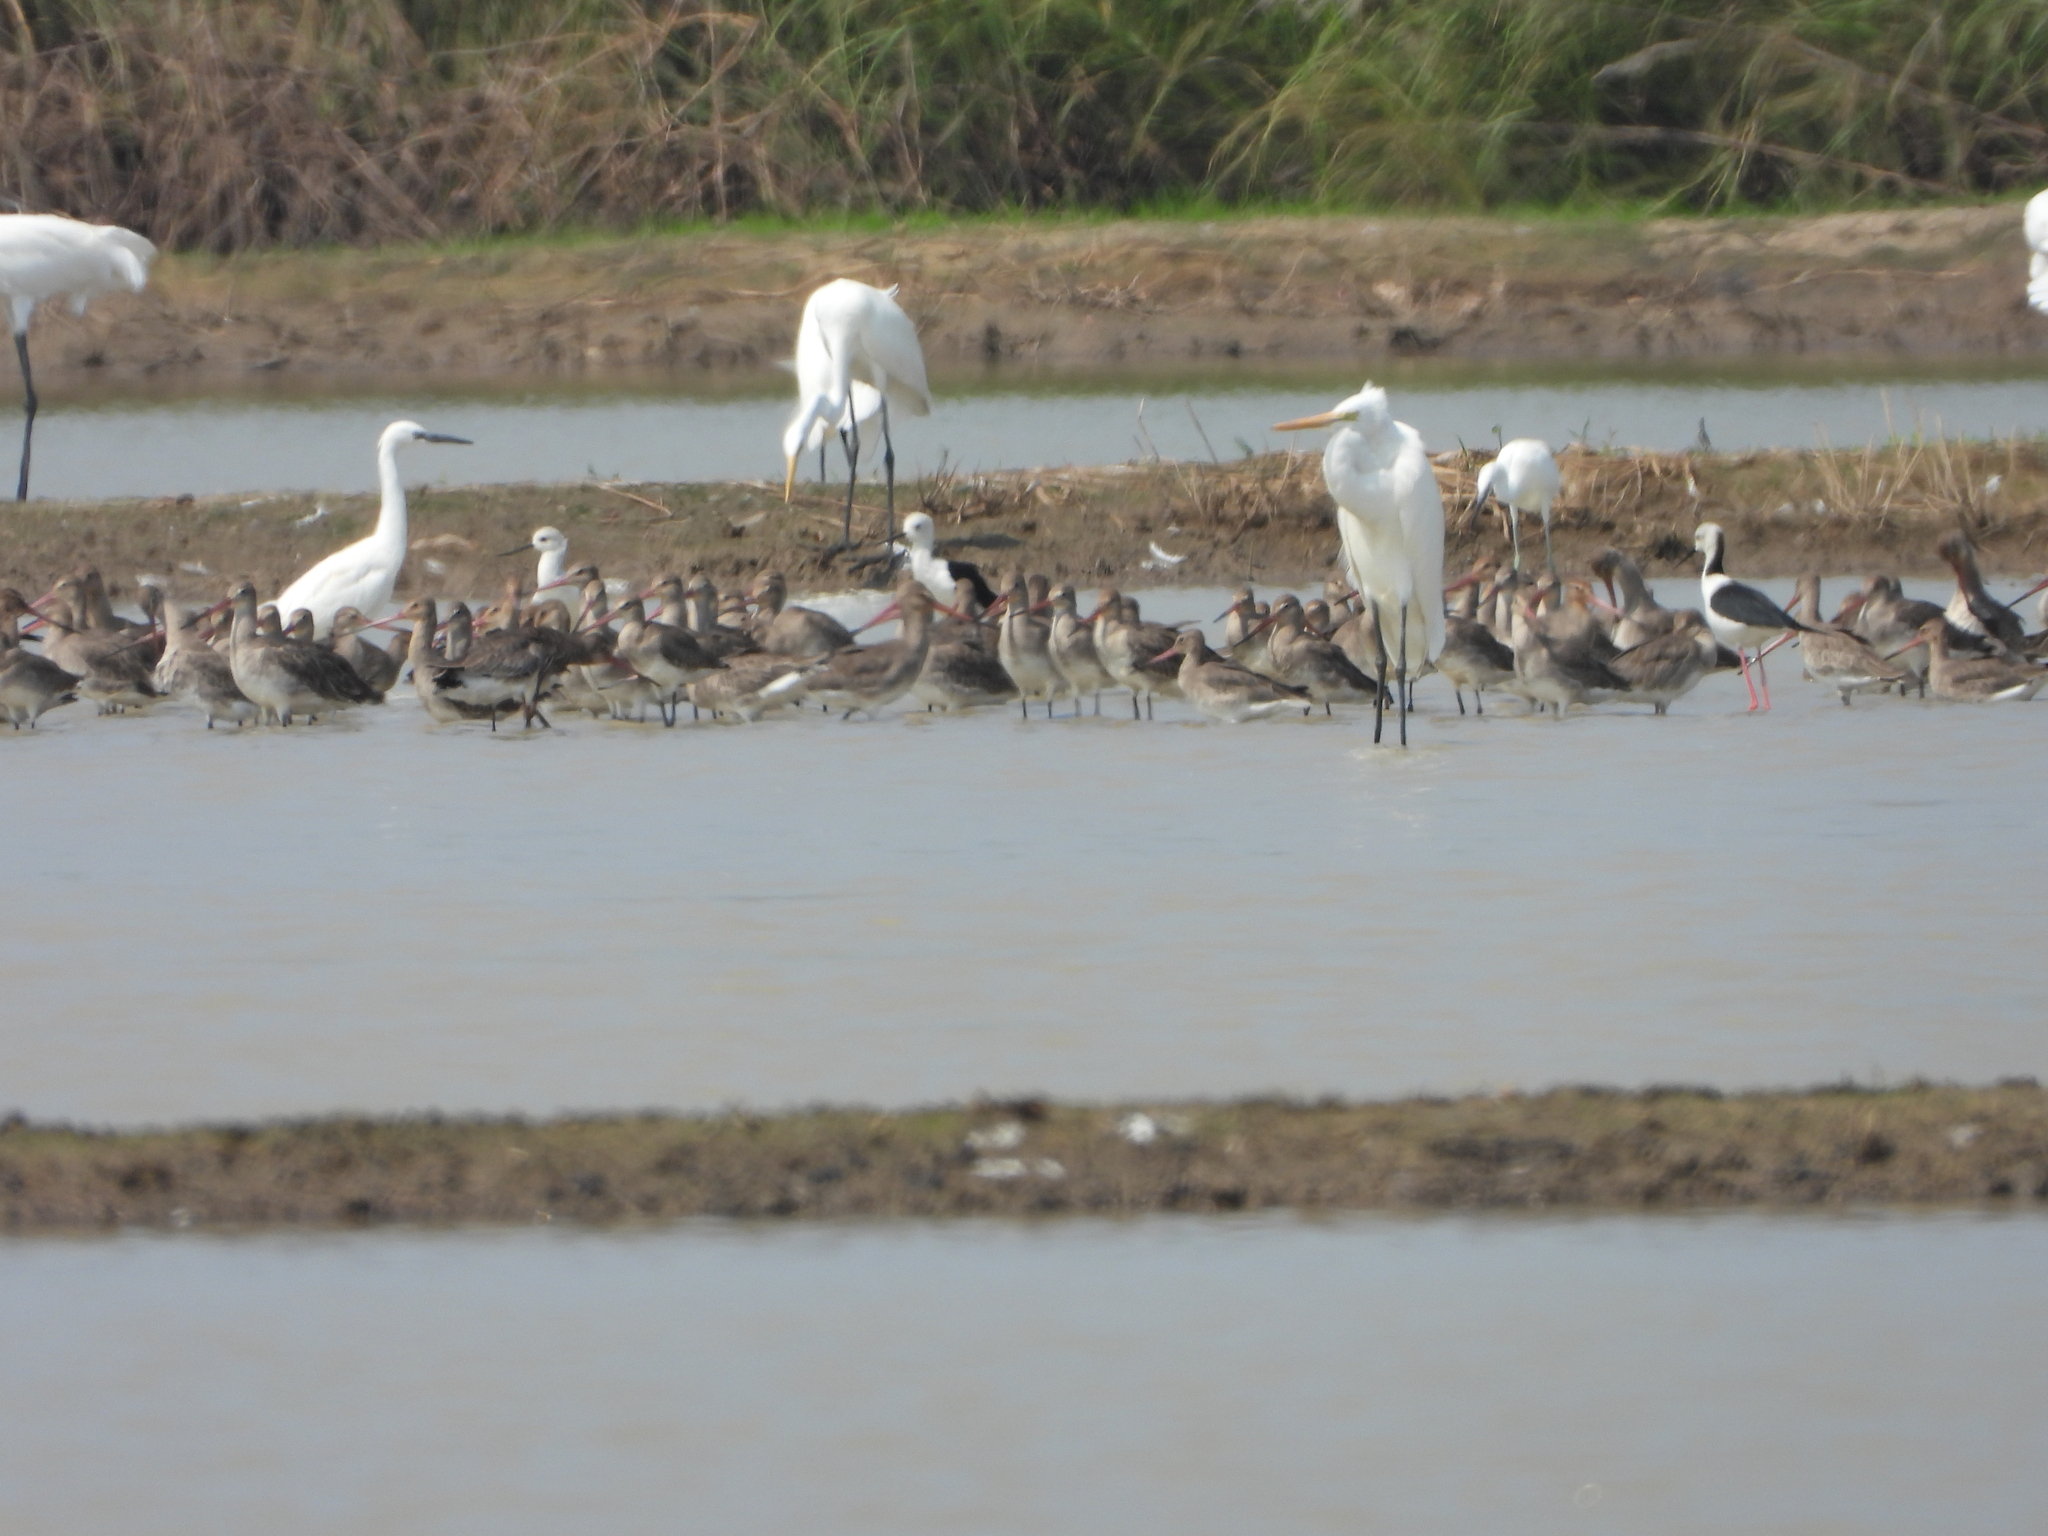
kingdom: Animalia
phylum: Chordata
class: Aves
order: Charadriiformes
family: Scolopacidae
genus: Limosa
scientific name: Limosa limosa
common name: Black-tailed godwit
